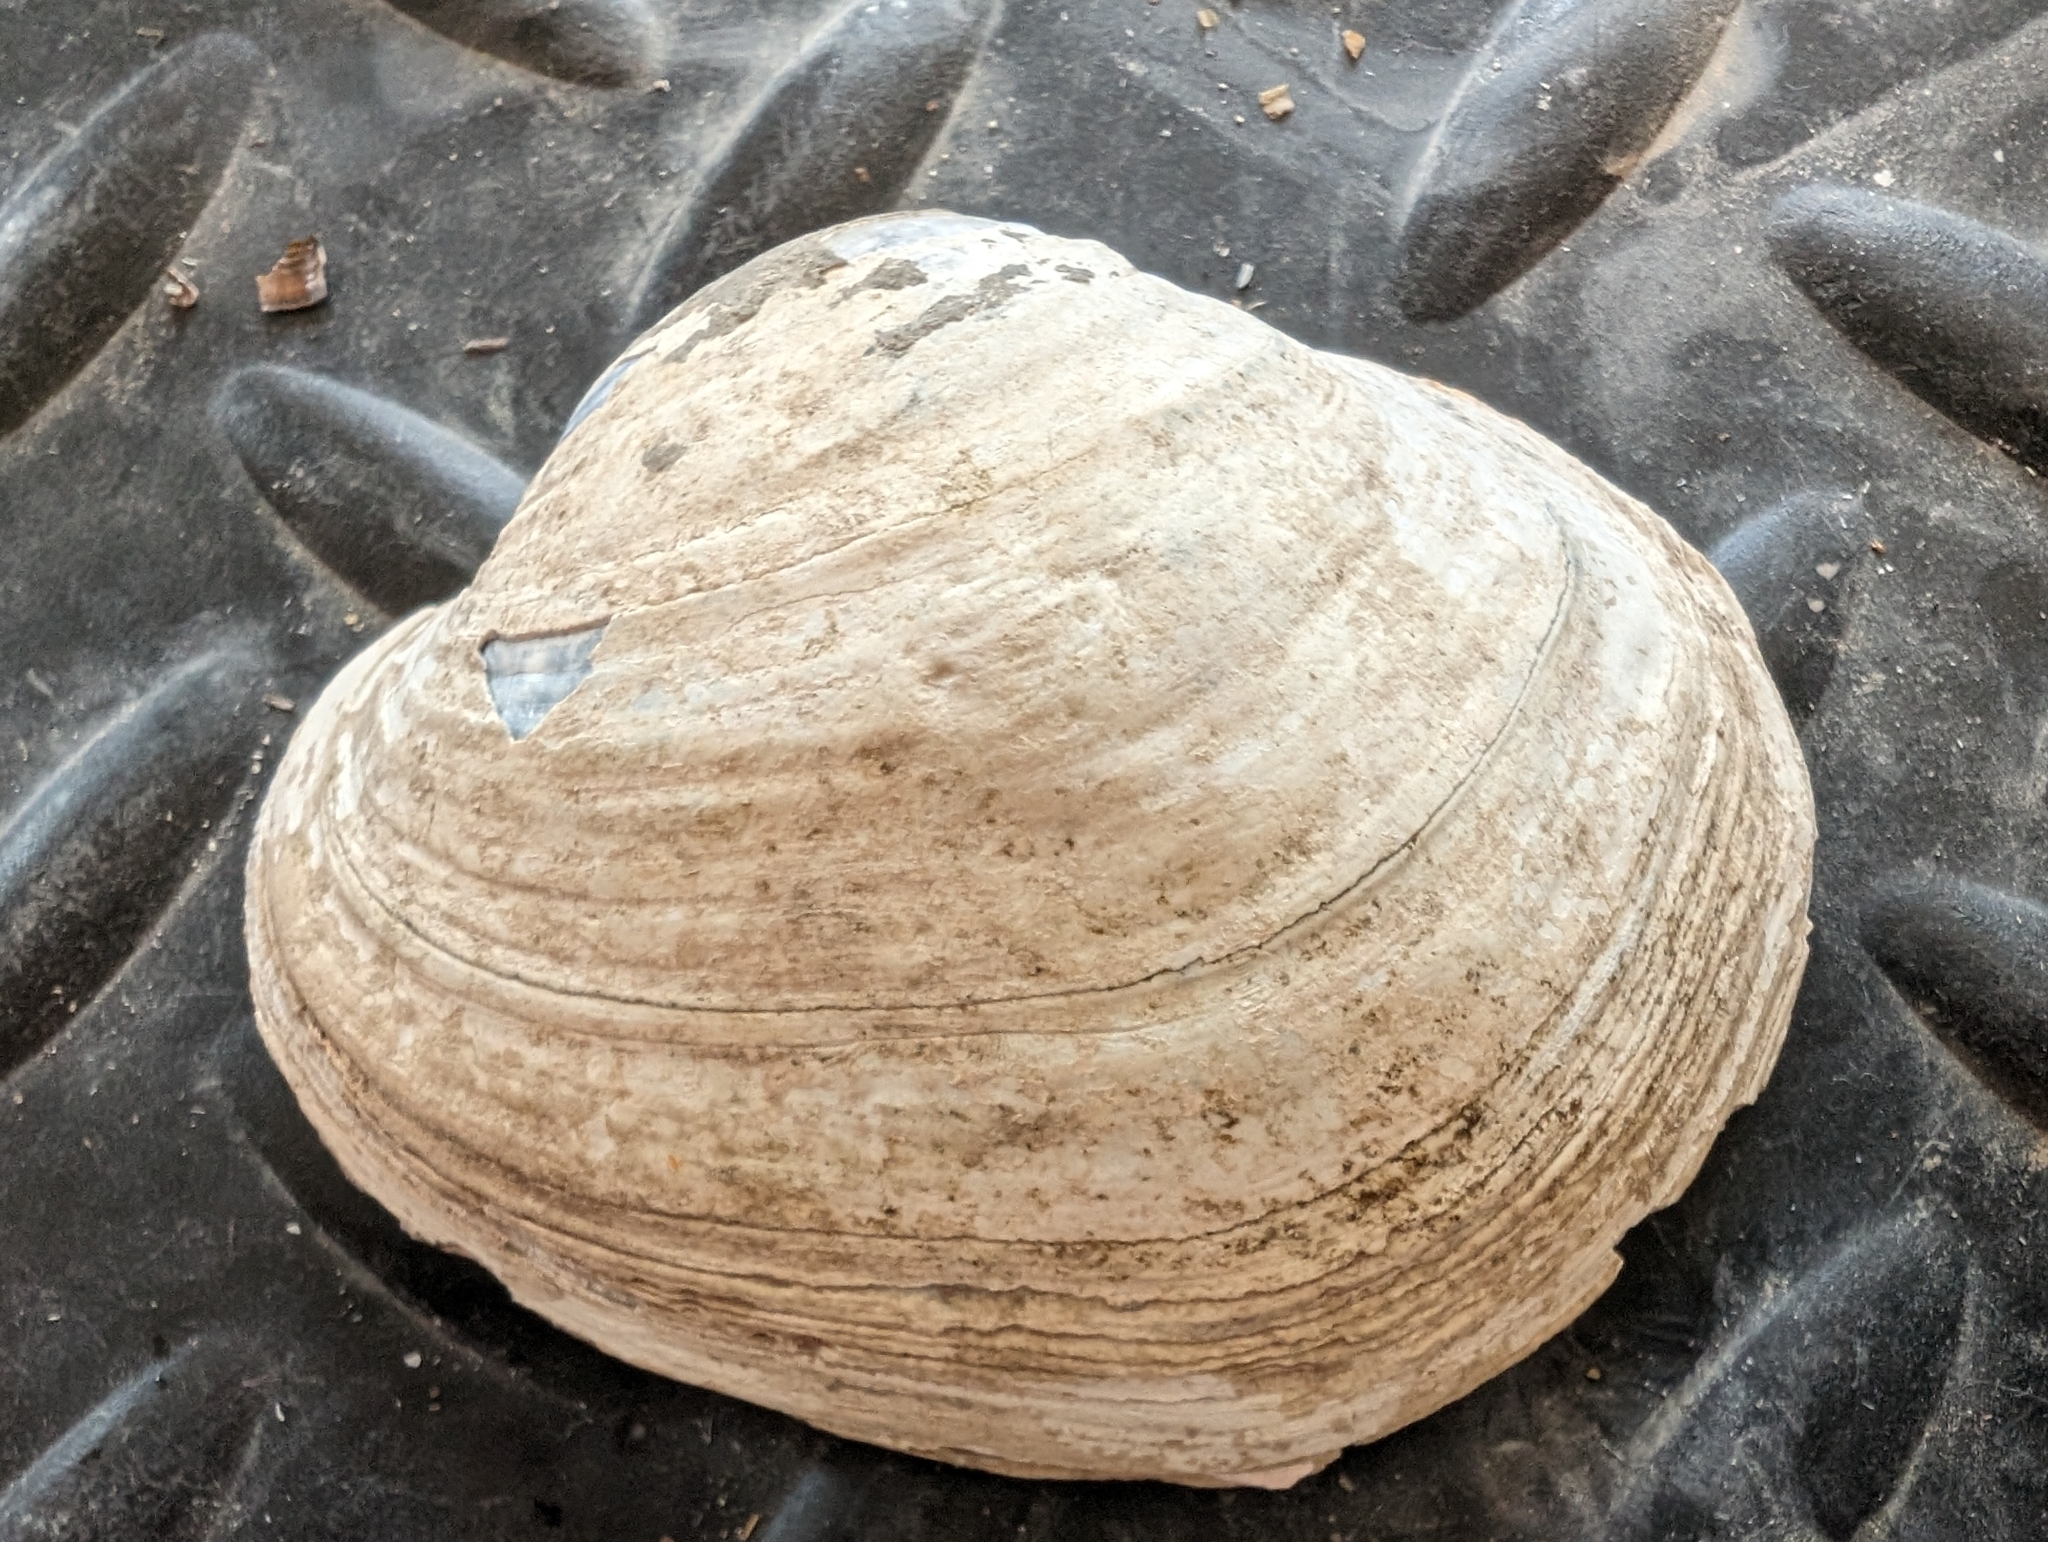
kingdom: Animalia
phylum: Mollusca
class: Bivalvia
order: Unionida
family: Unionidae
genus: Lampsilis
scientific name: Lampsilis cardium
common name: Plain pocketbook
